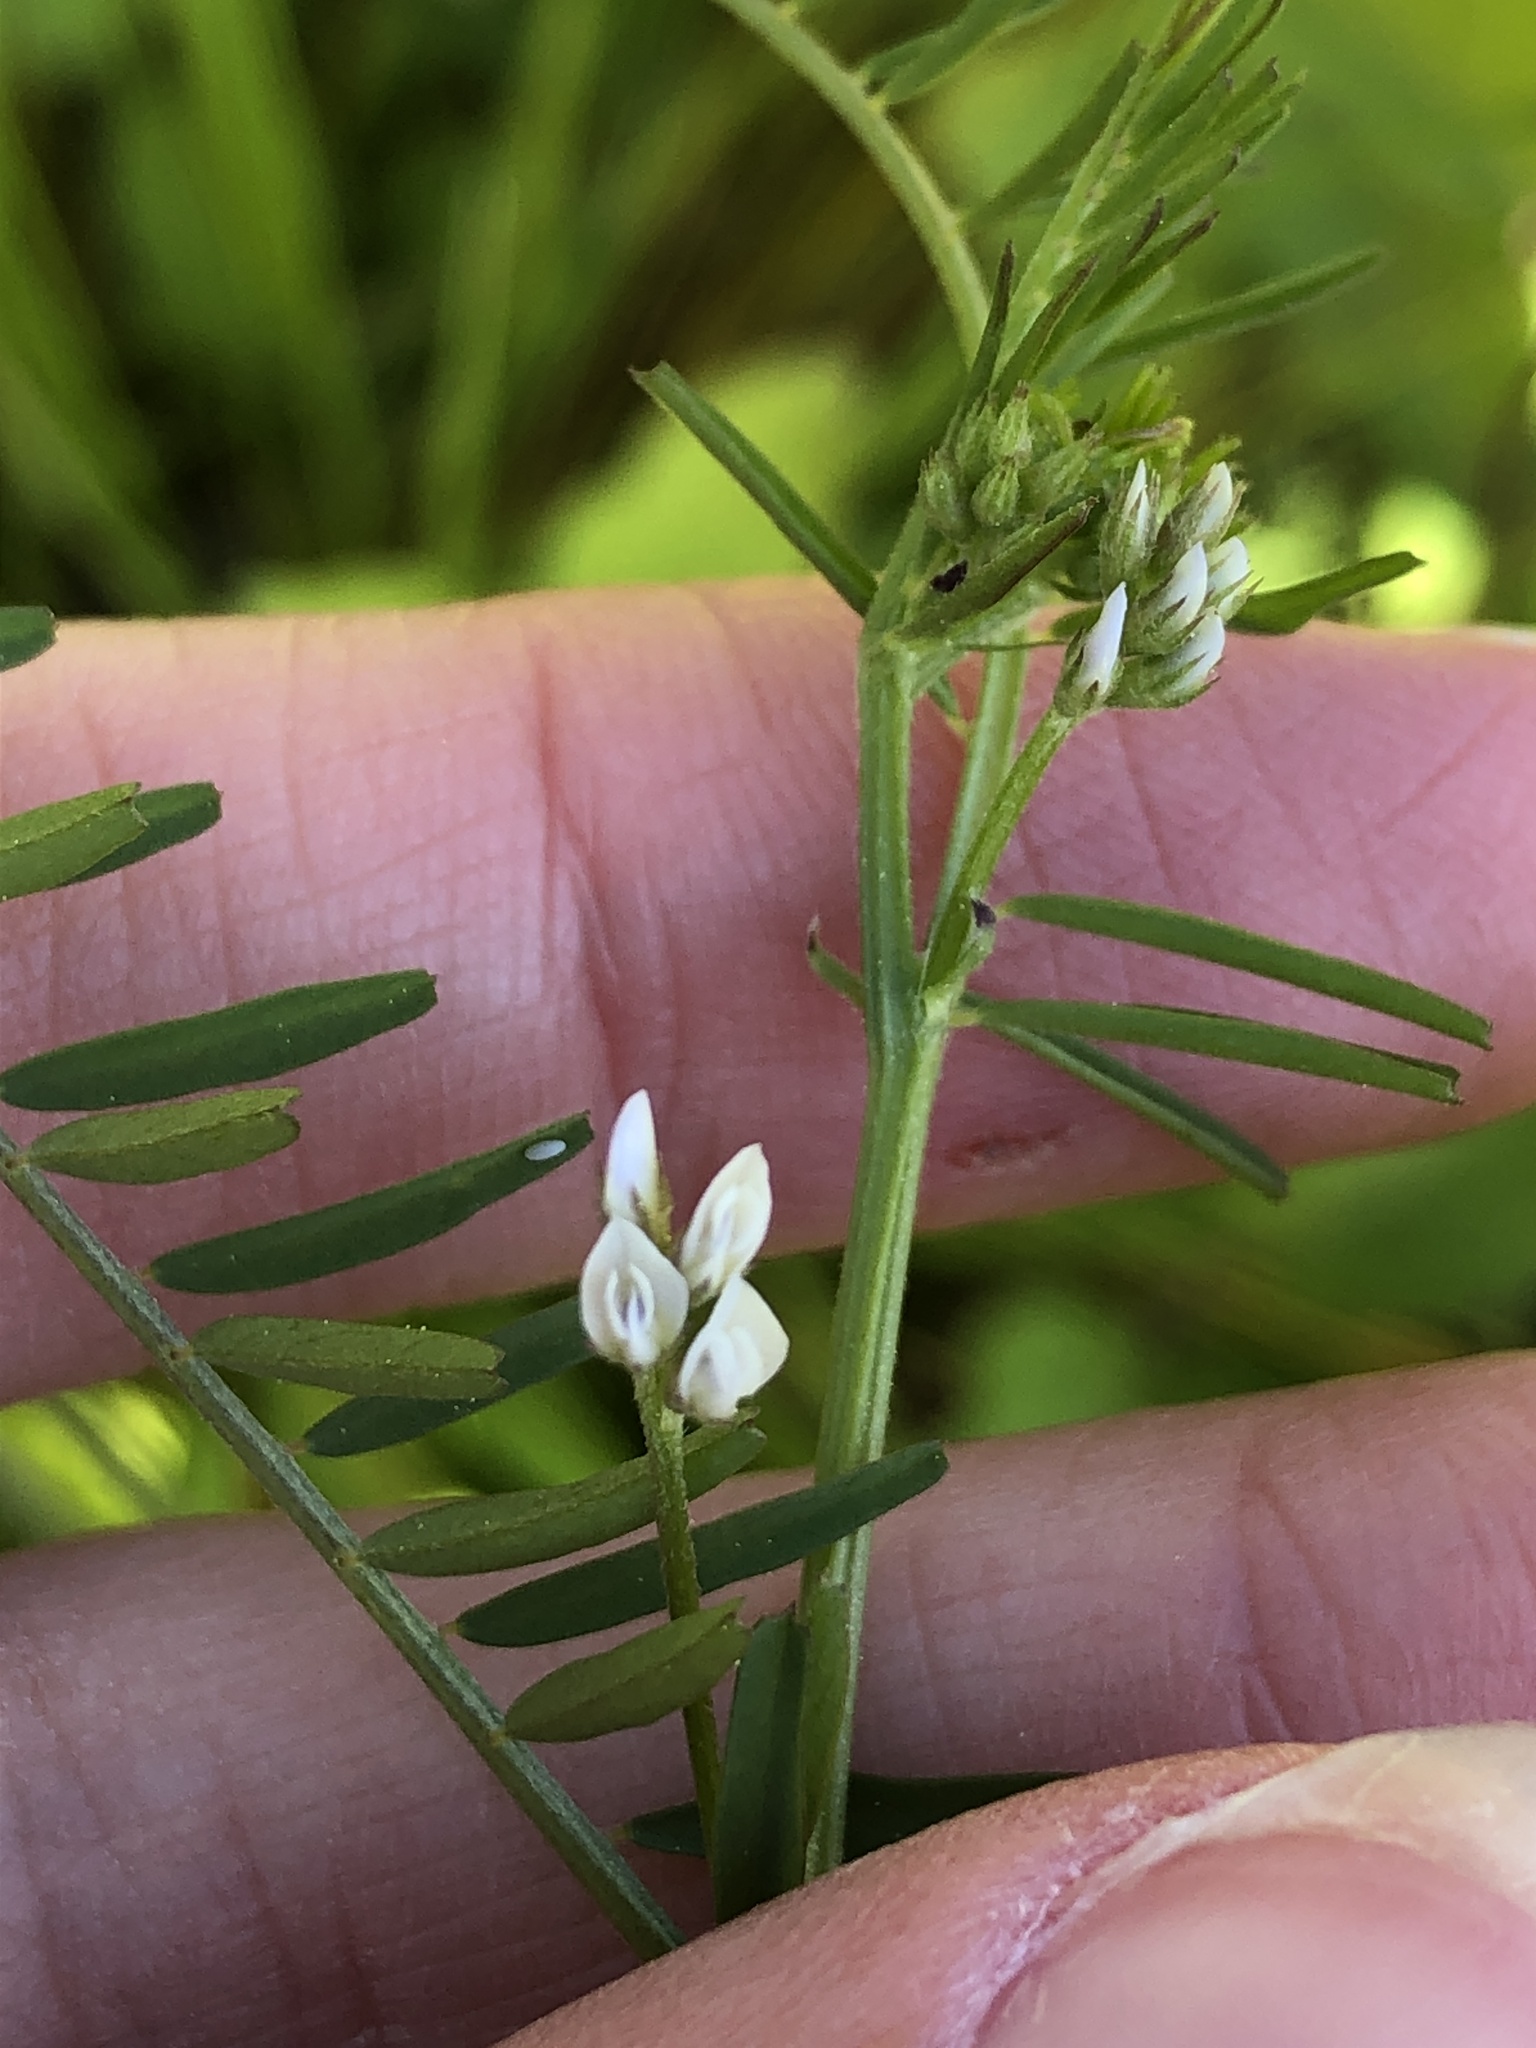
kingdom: Plantae
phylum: Tracheophyta
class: Magnoliopsida
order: Fabales
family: Fabaceae
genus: Vicia
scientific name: Vicia hirsuta
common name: Tiny vetch
